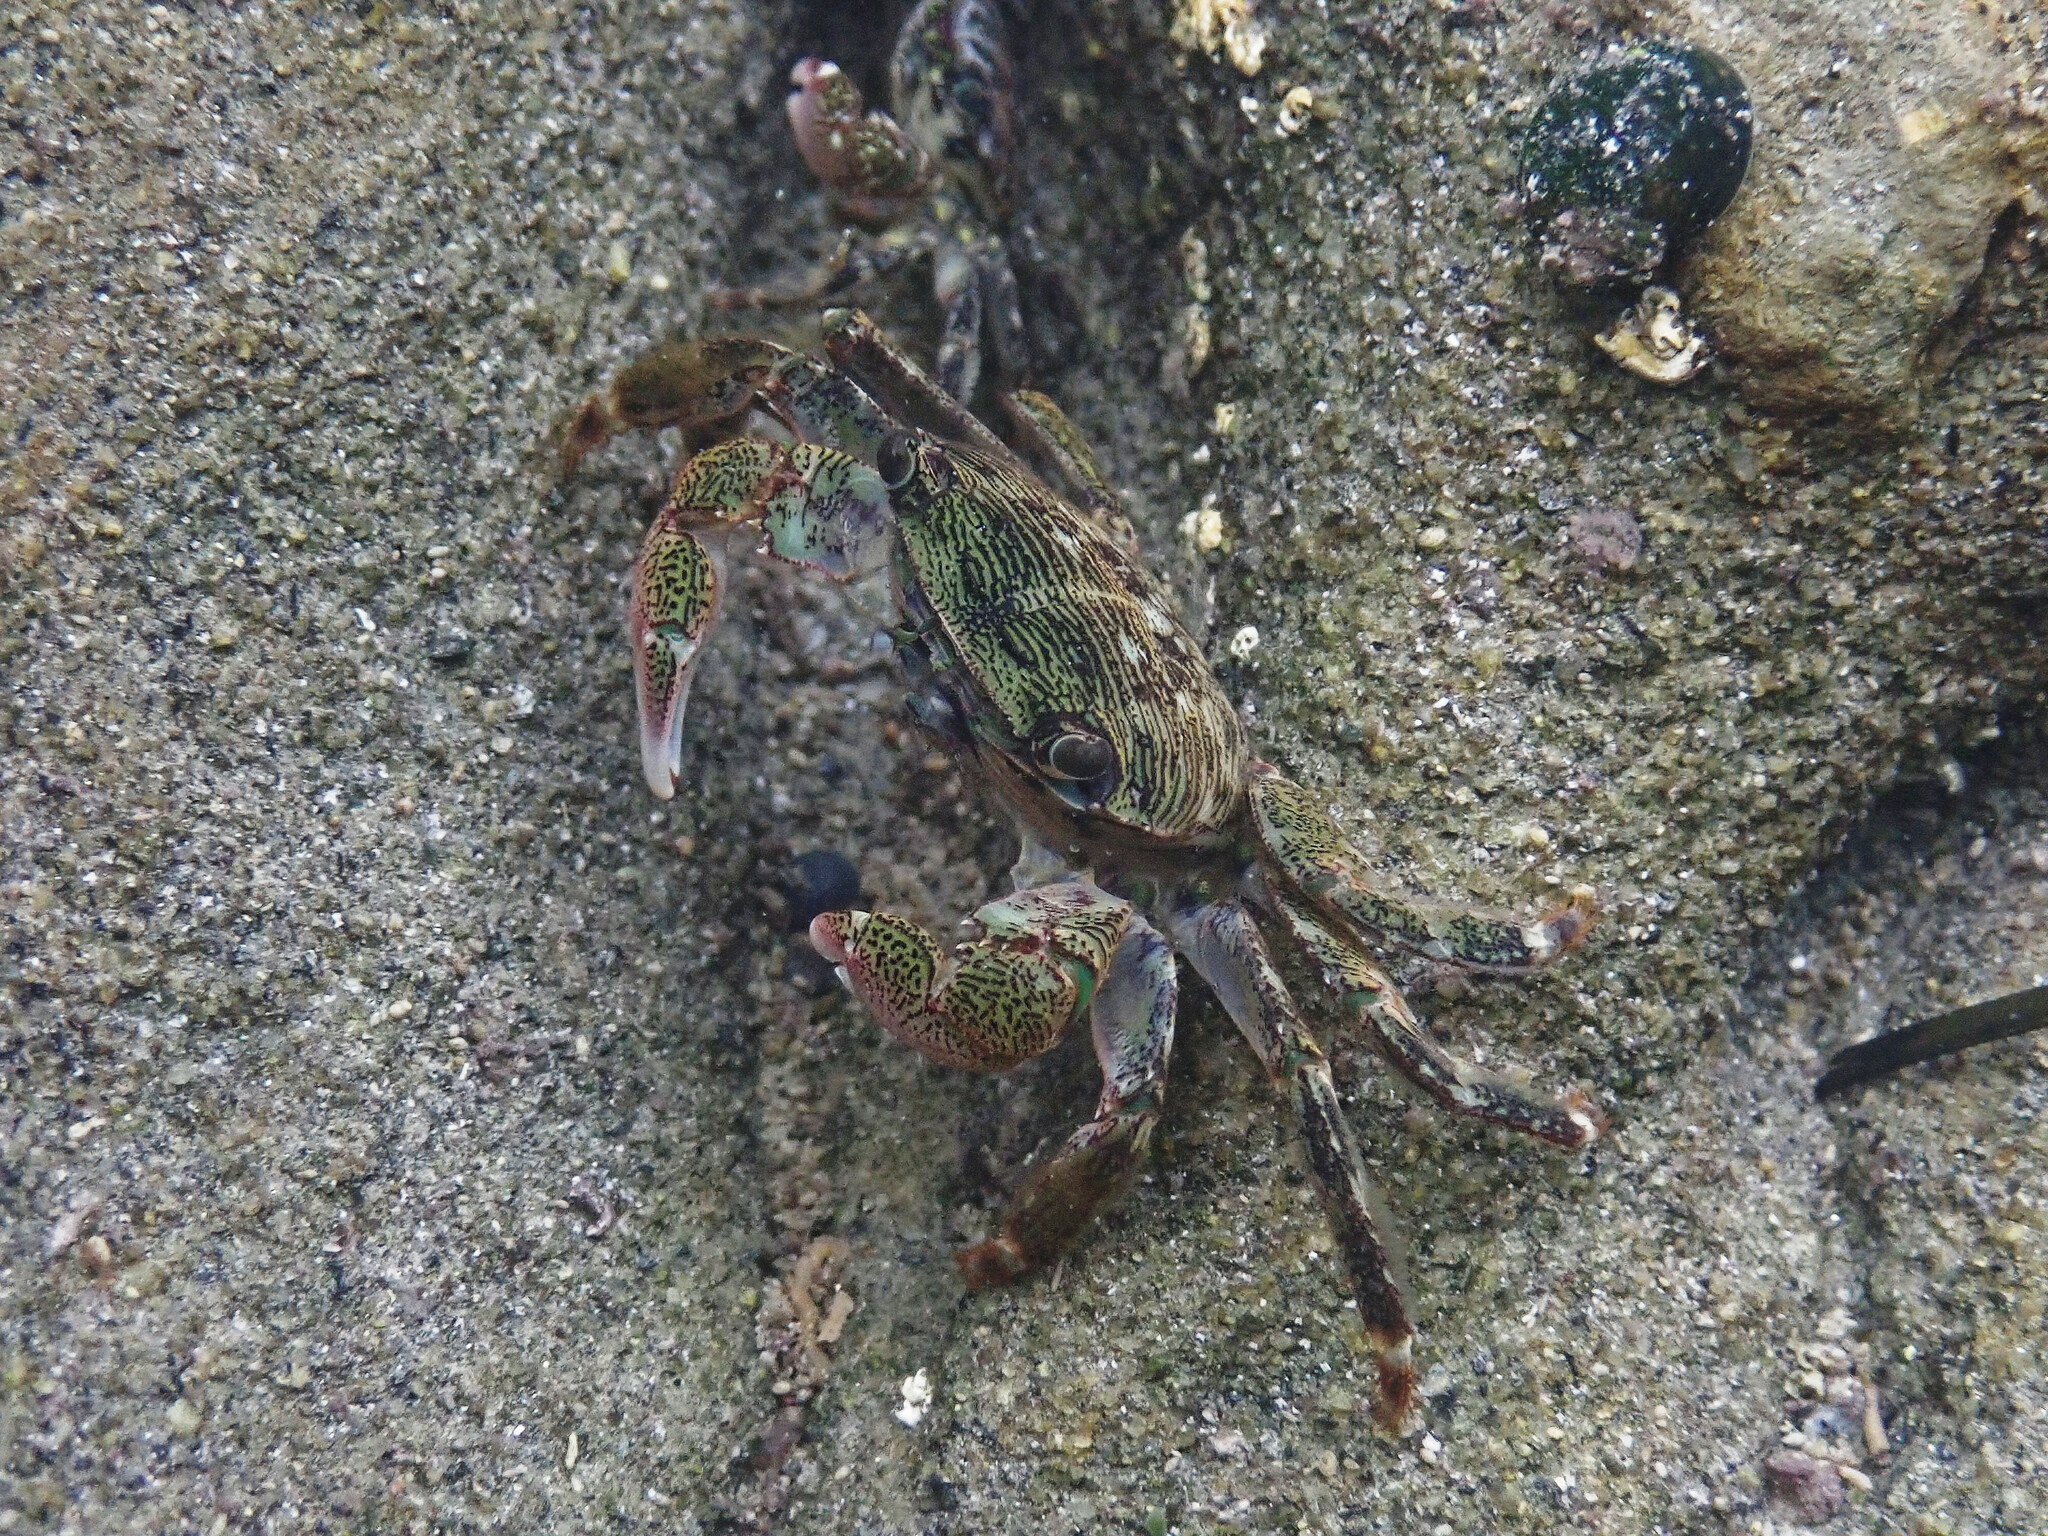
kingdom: Animalia
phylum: Arthropoda
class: Malacostraca
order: Decapoda
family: Grapsidae
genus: Pachygrapsus
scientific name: Pachygrapsus crassipes
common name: Striped shore crab
